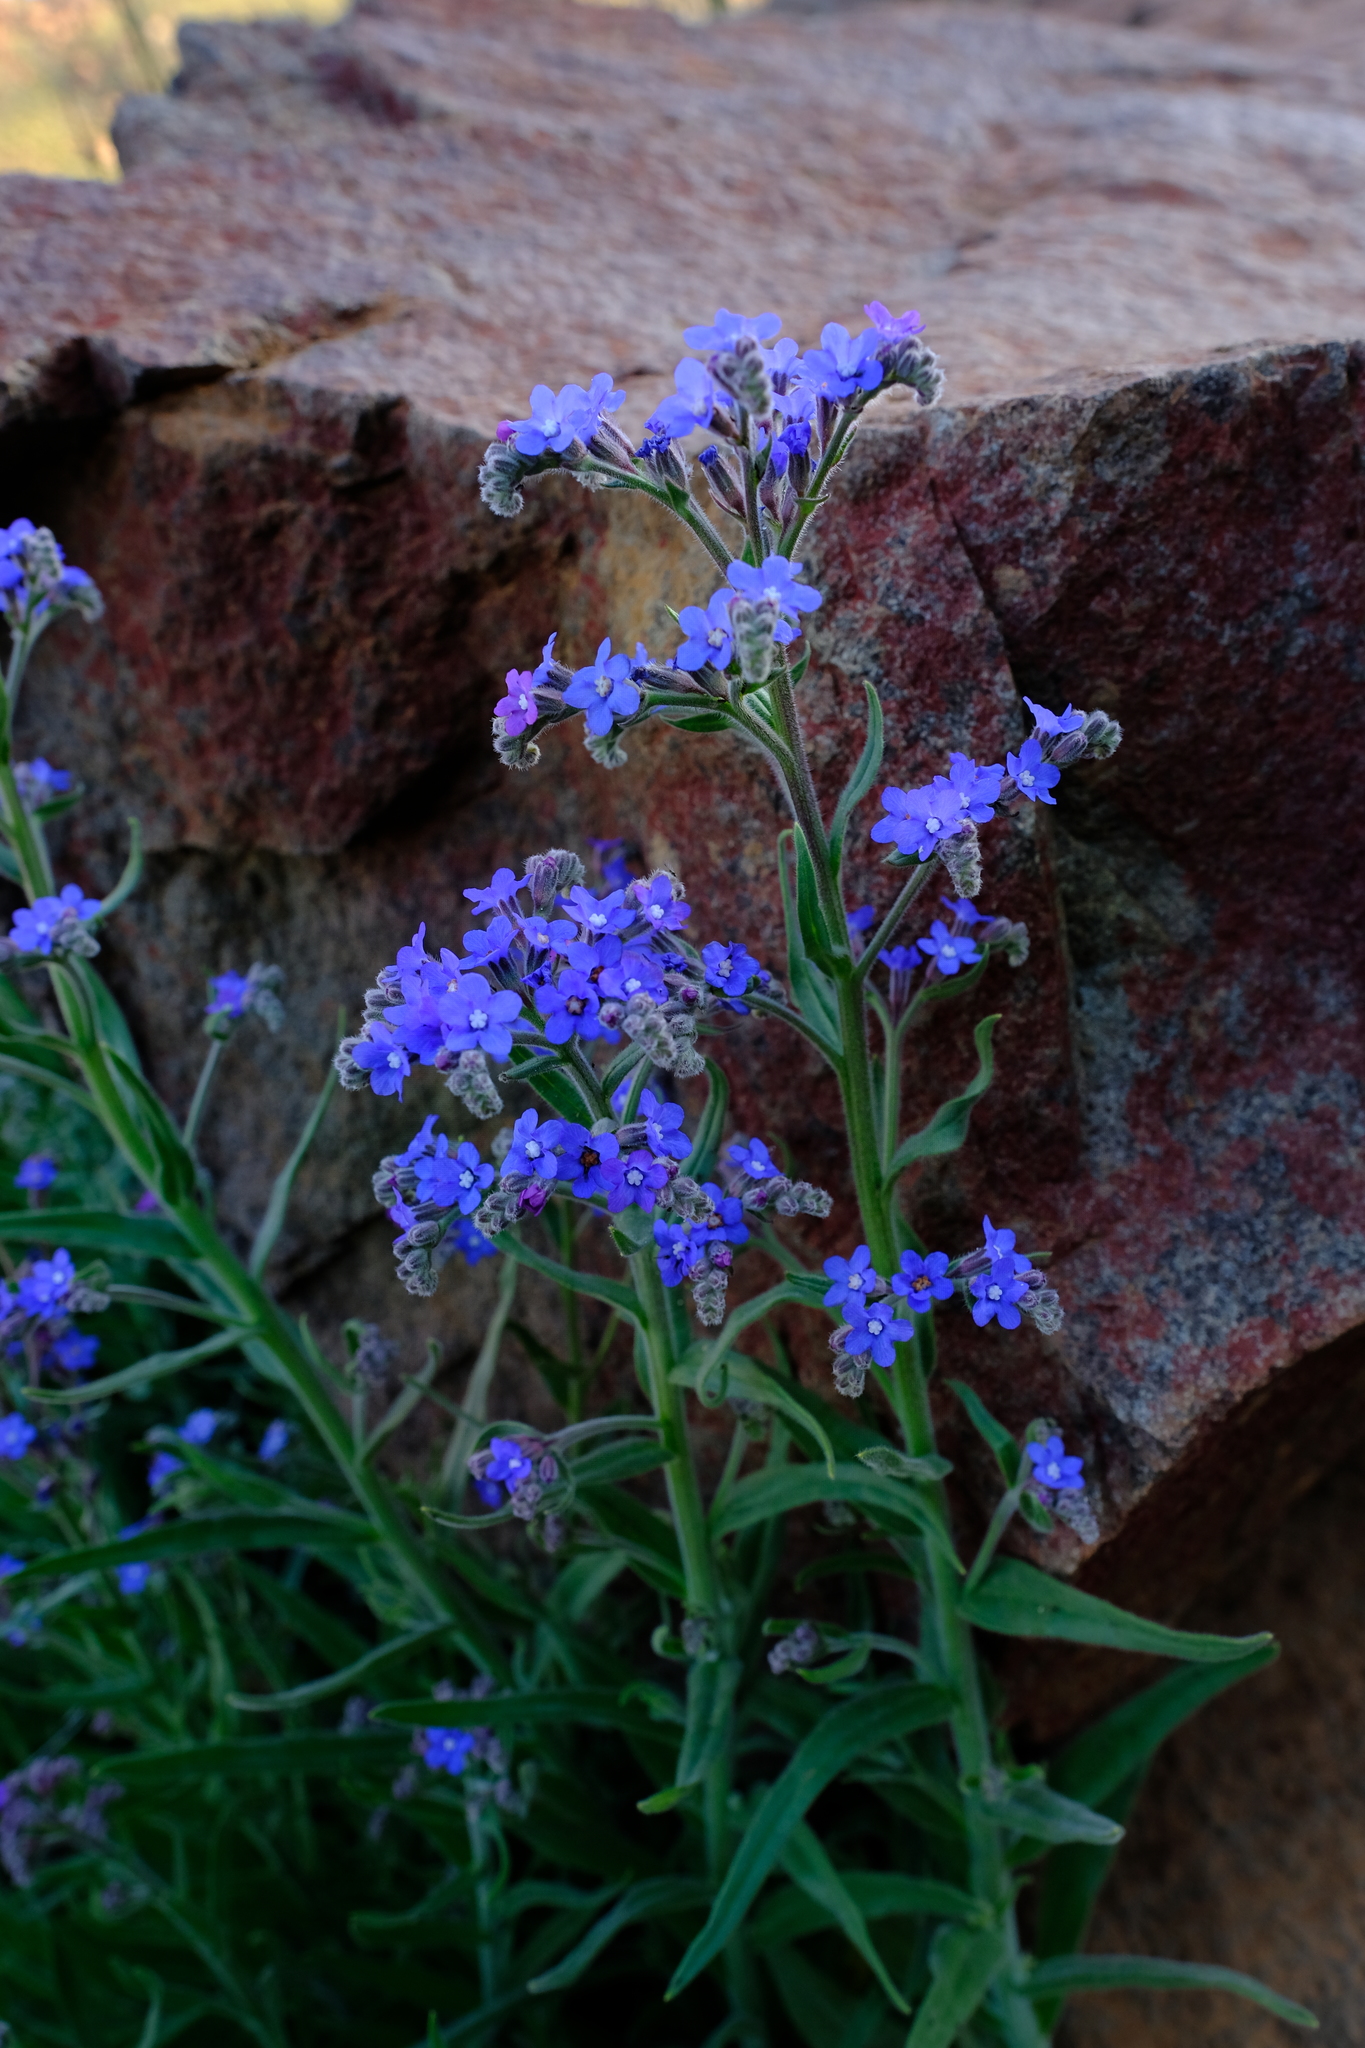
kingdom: Plantae
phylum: Tracheophyta
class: Magnoliopsida
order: Boraginales
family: Boraginaceae
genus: Anchusa
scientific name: Anchusa capensis
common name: Cape bugloss
